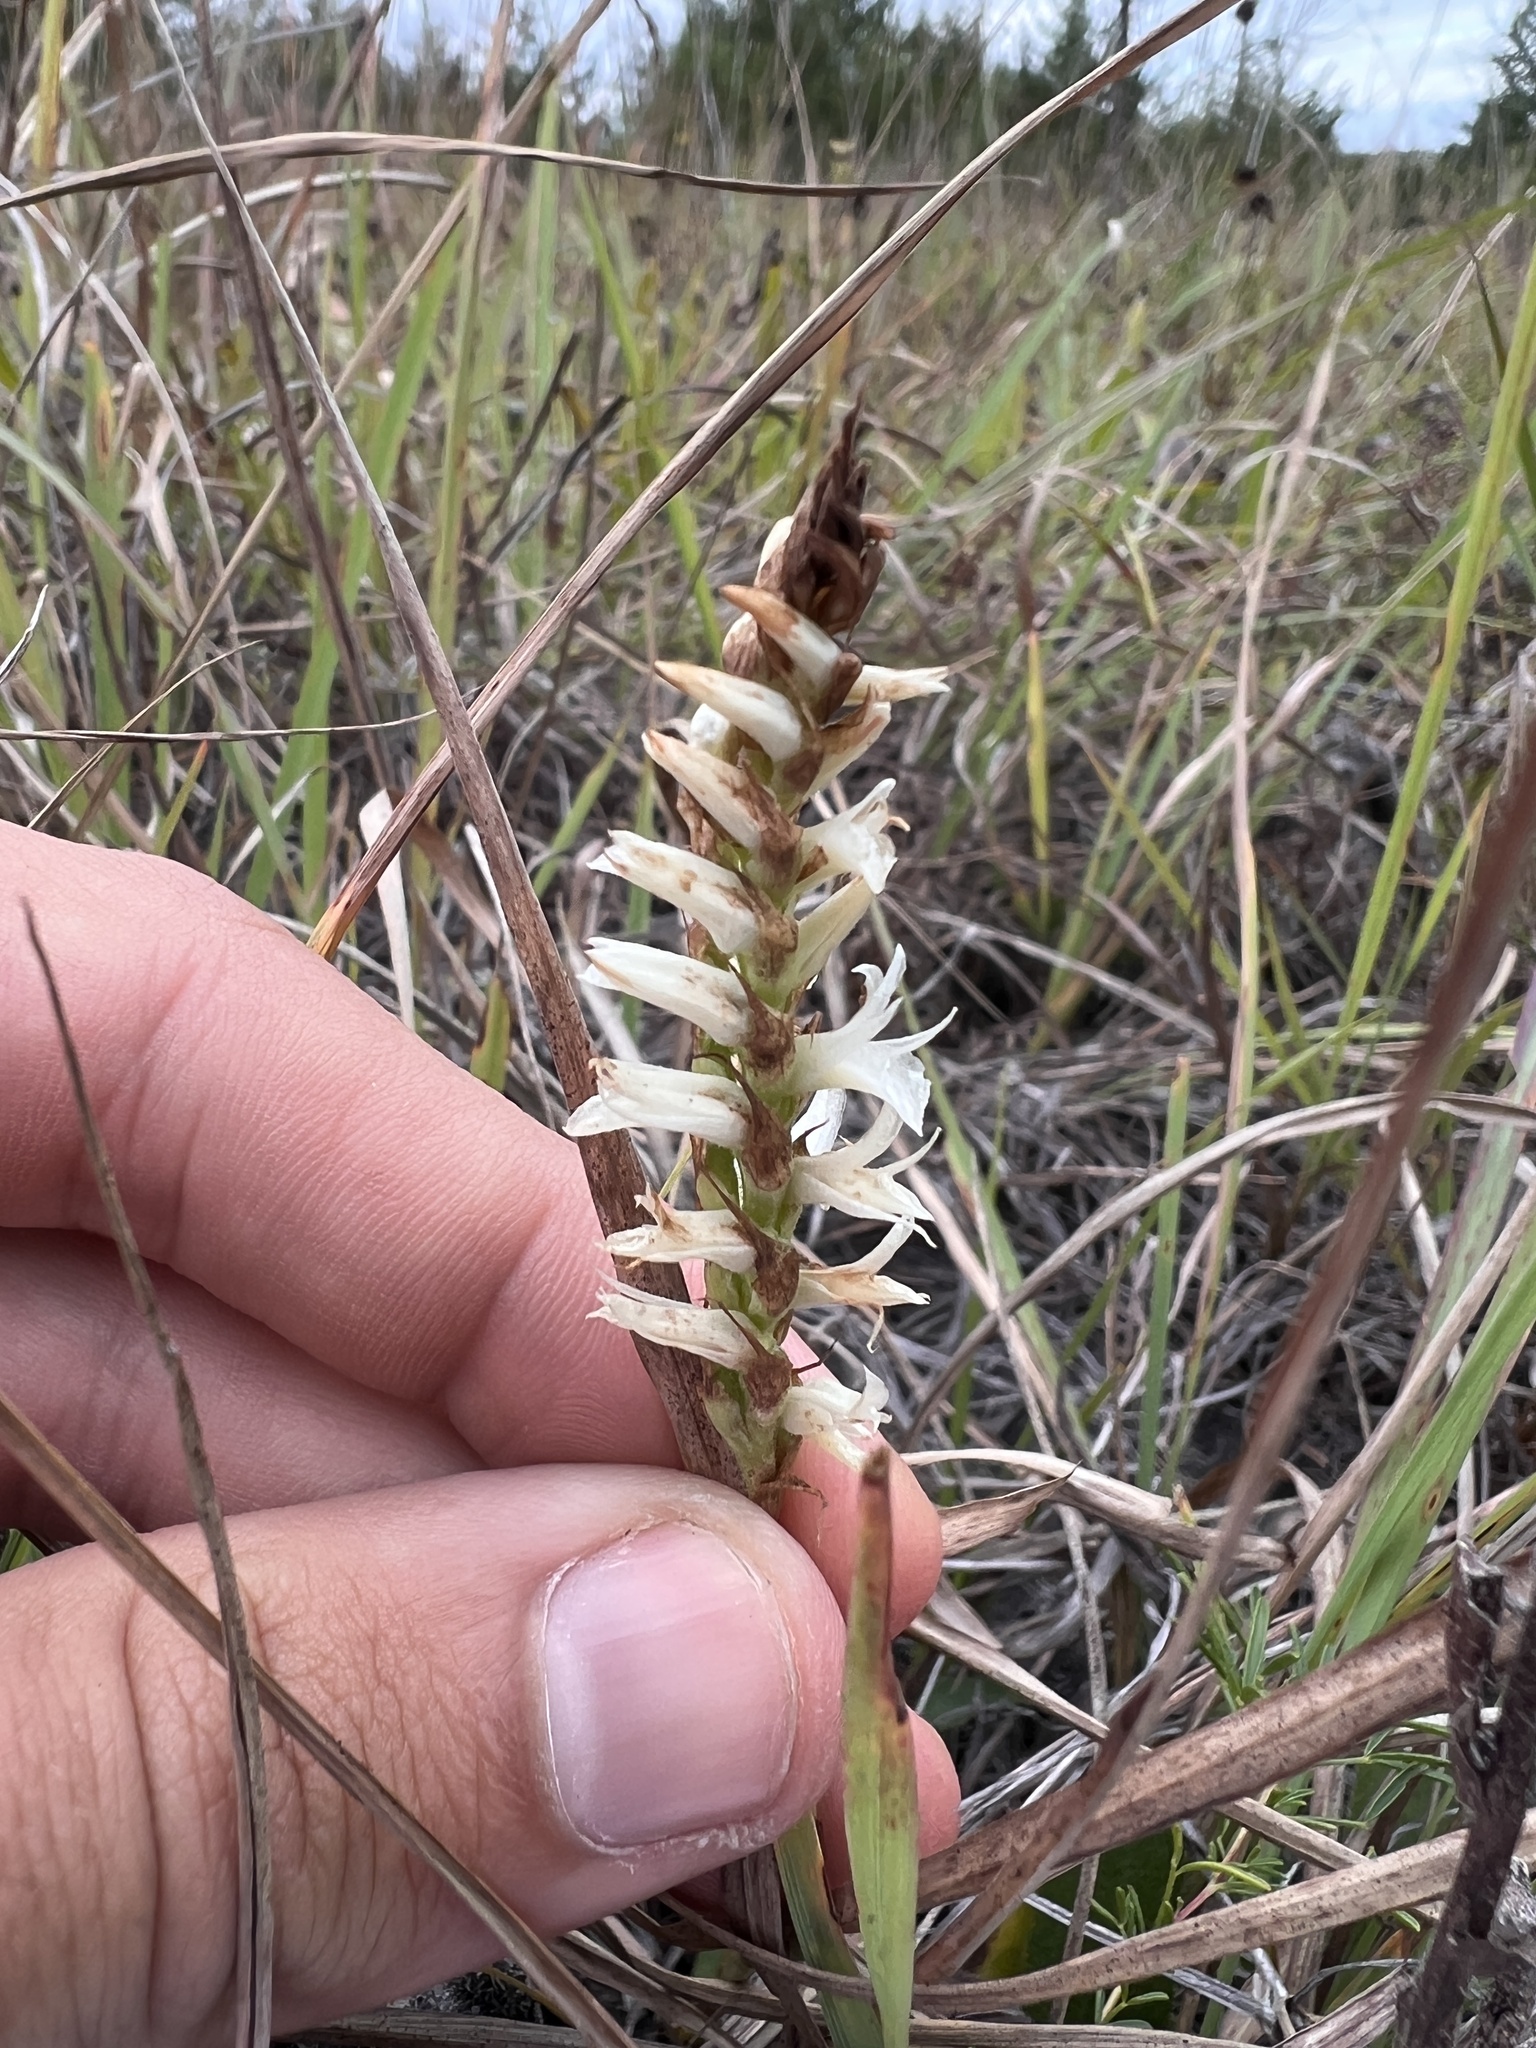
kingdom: Plantae
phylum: Tracheophyta
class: Liliopsida
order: Asparagales
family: Orchidaceae
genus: Spiranthes
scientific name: Spiranthes magnicamporum
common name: Great plains ladies'-tresses
